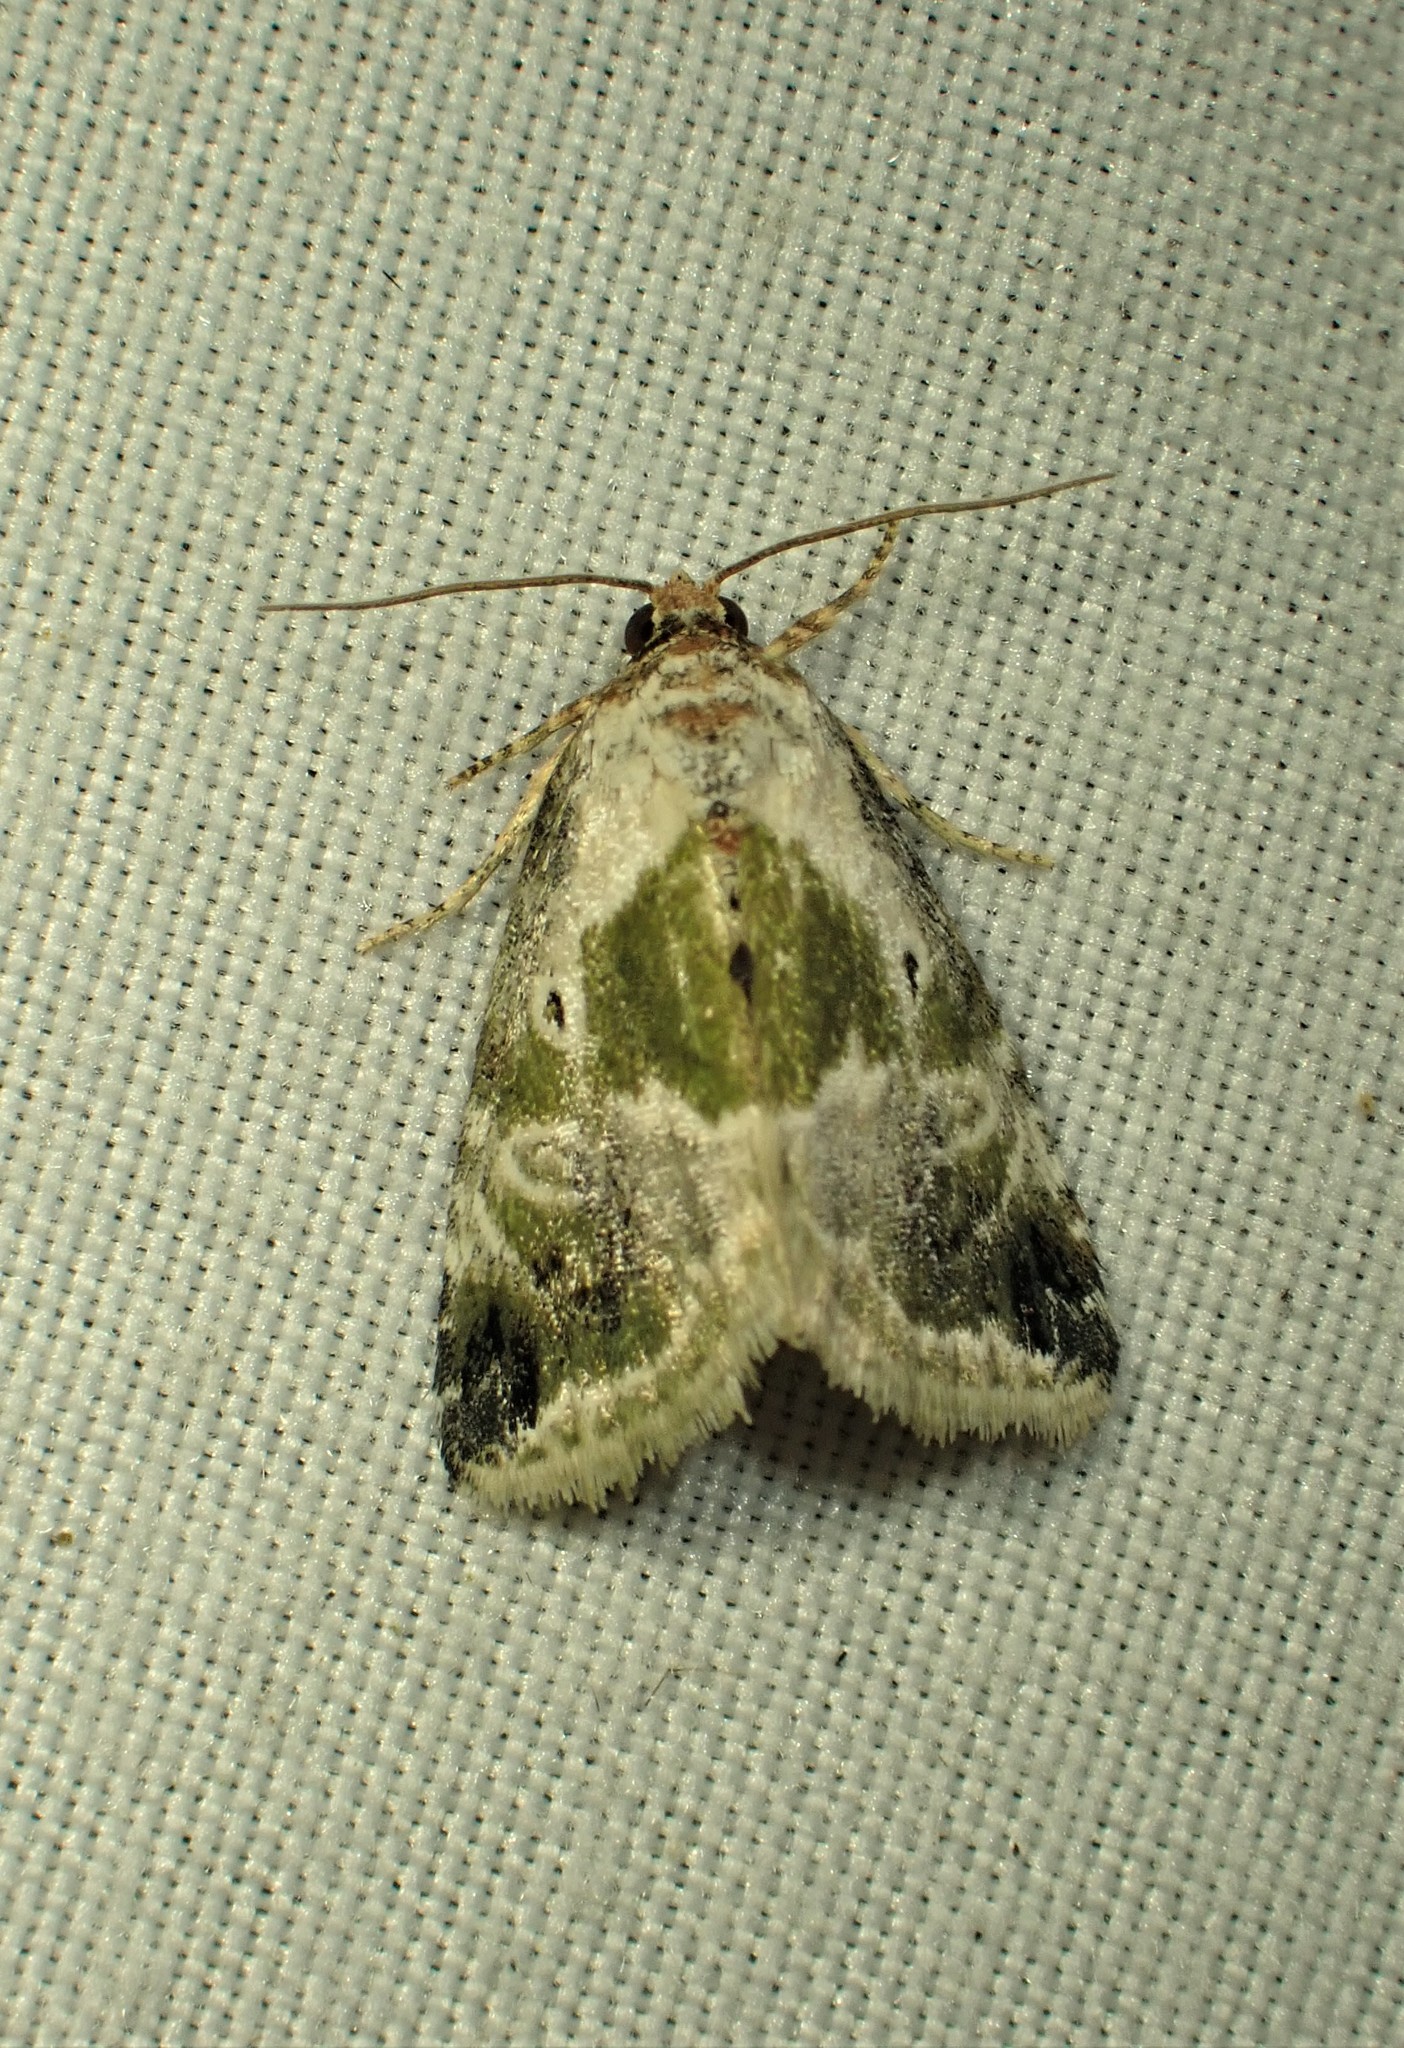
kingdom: Animalia
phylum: Arthropoda
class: Insecta
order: Lepidoptera
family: Noctuidae
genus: Maliattha
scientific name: Maliattha synochitis
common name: Black-dotted glyph
